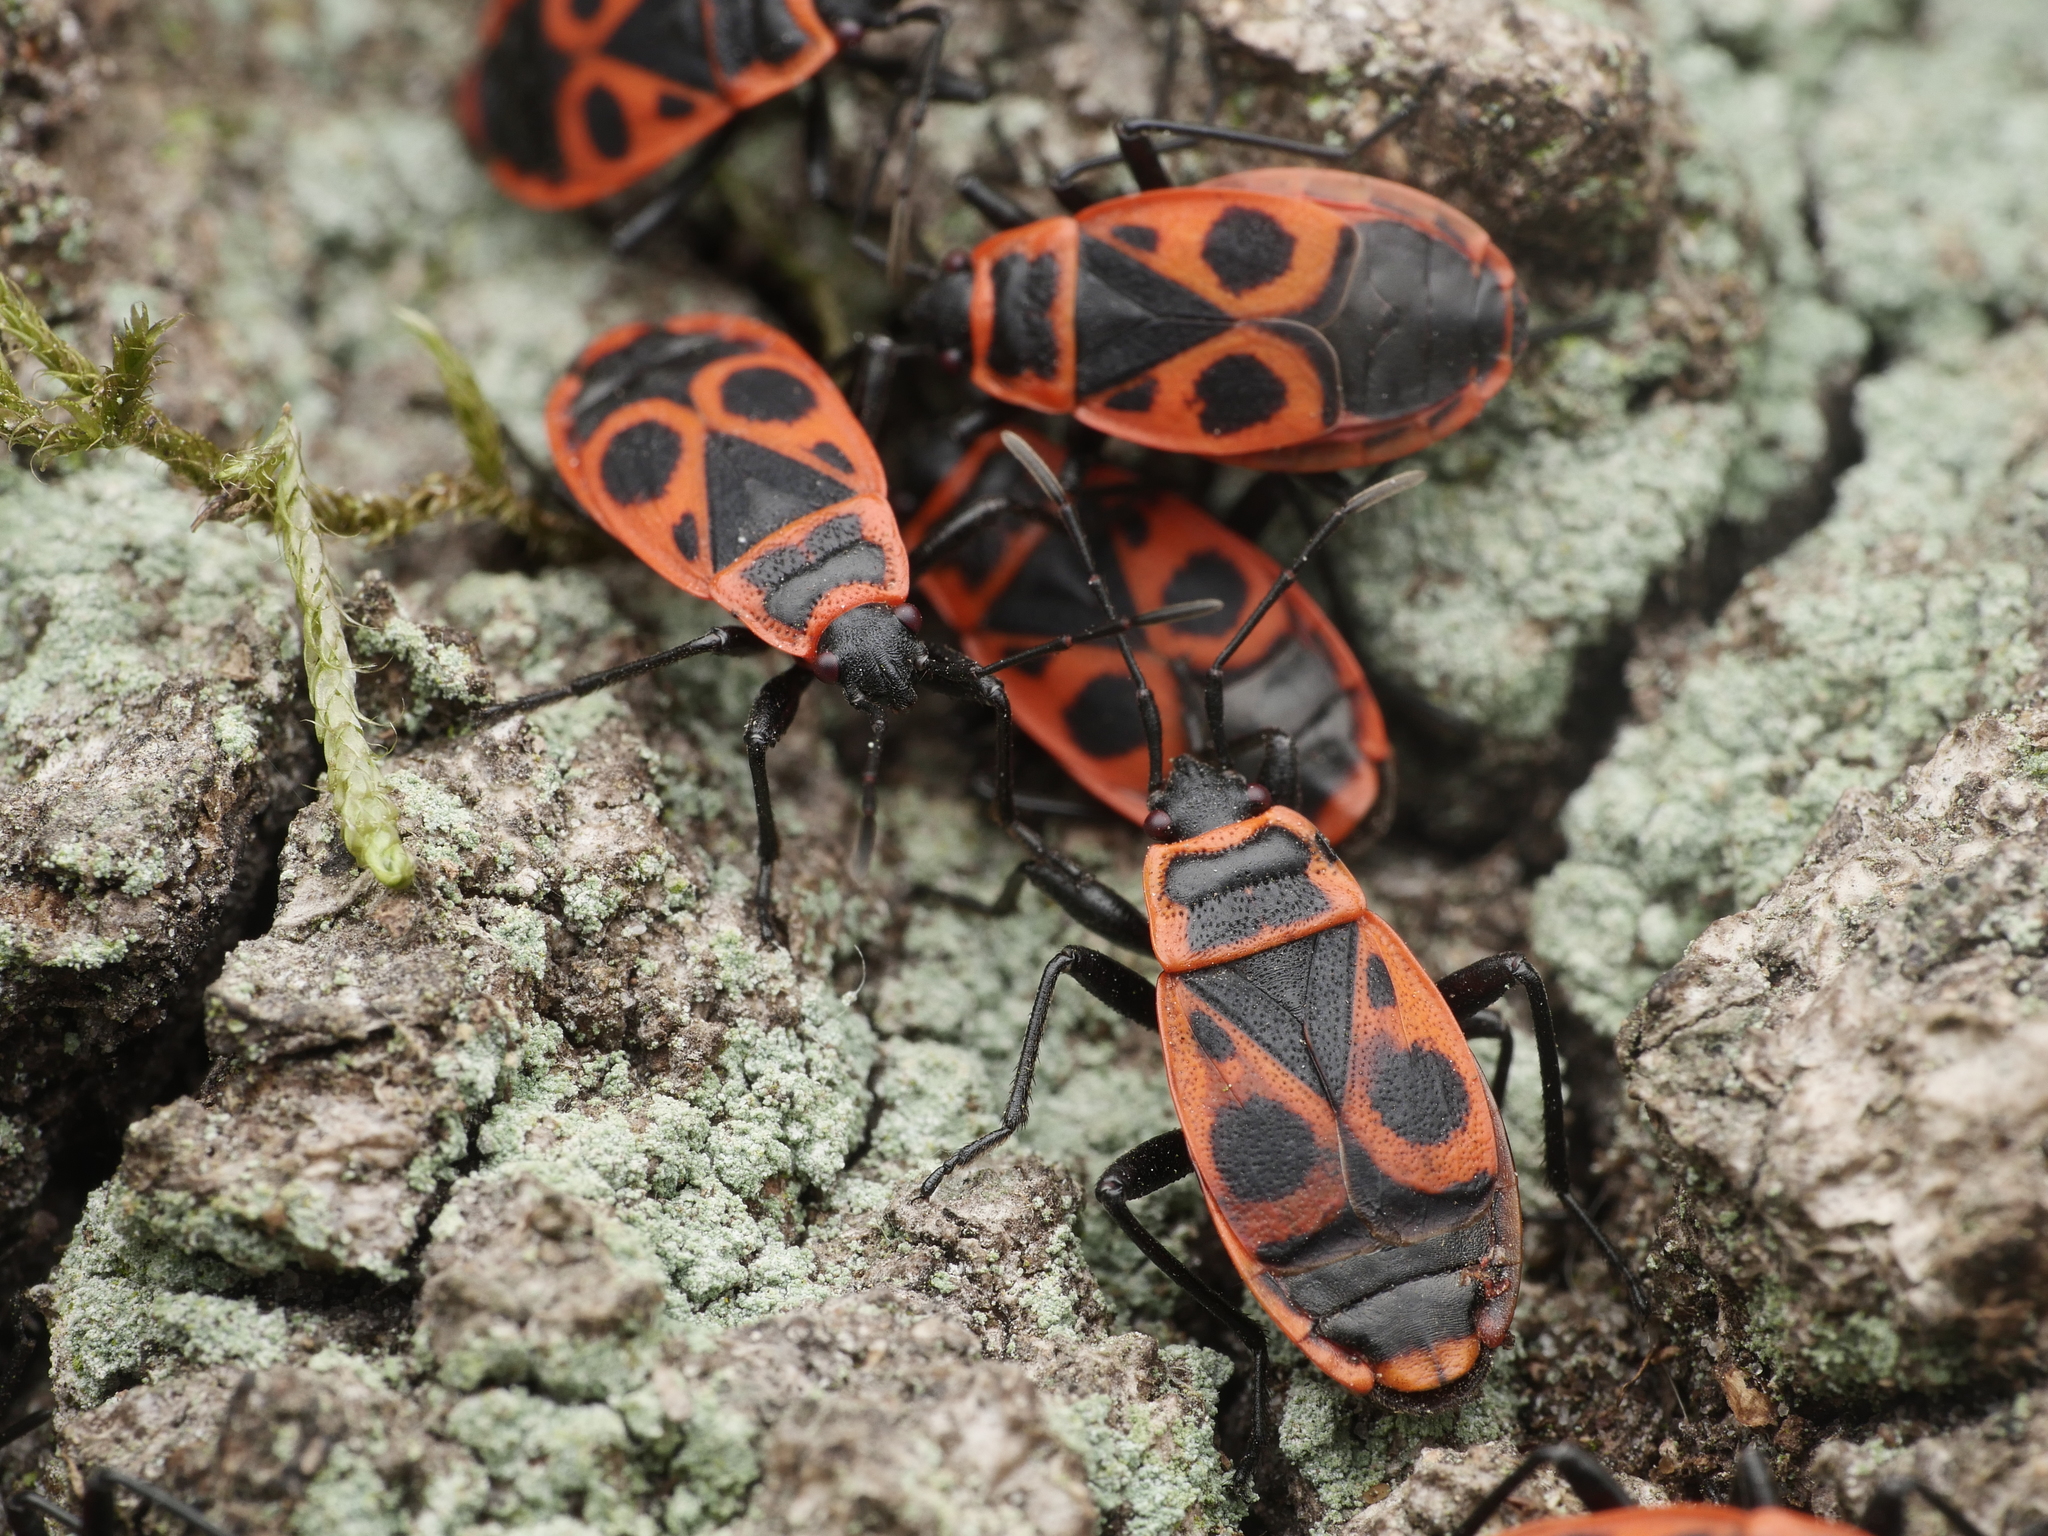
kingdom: Animalia
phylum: Arthropoda
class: Insecta
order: Hemiptera
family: Pyrrhocoridae
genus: Pyrrhocoris
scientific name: Pyrrhocoris apterus
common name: Firebug
